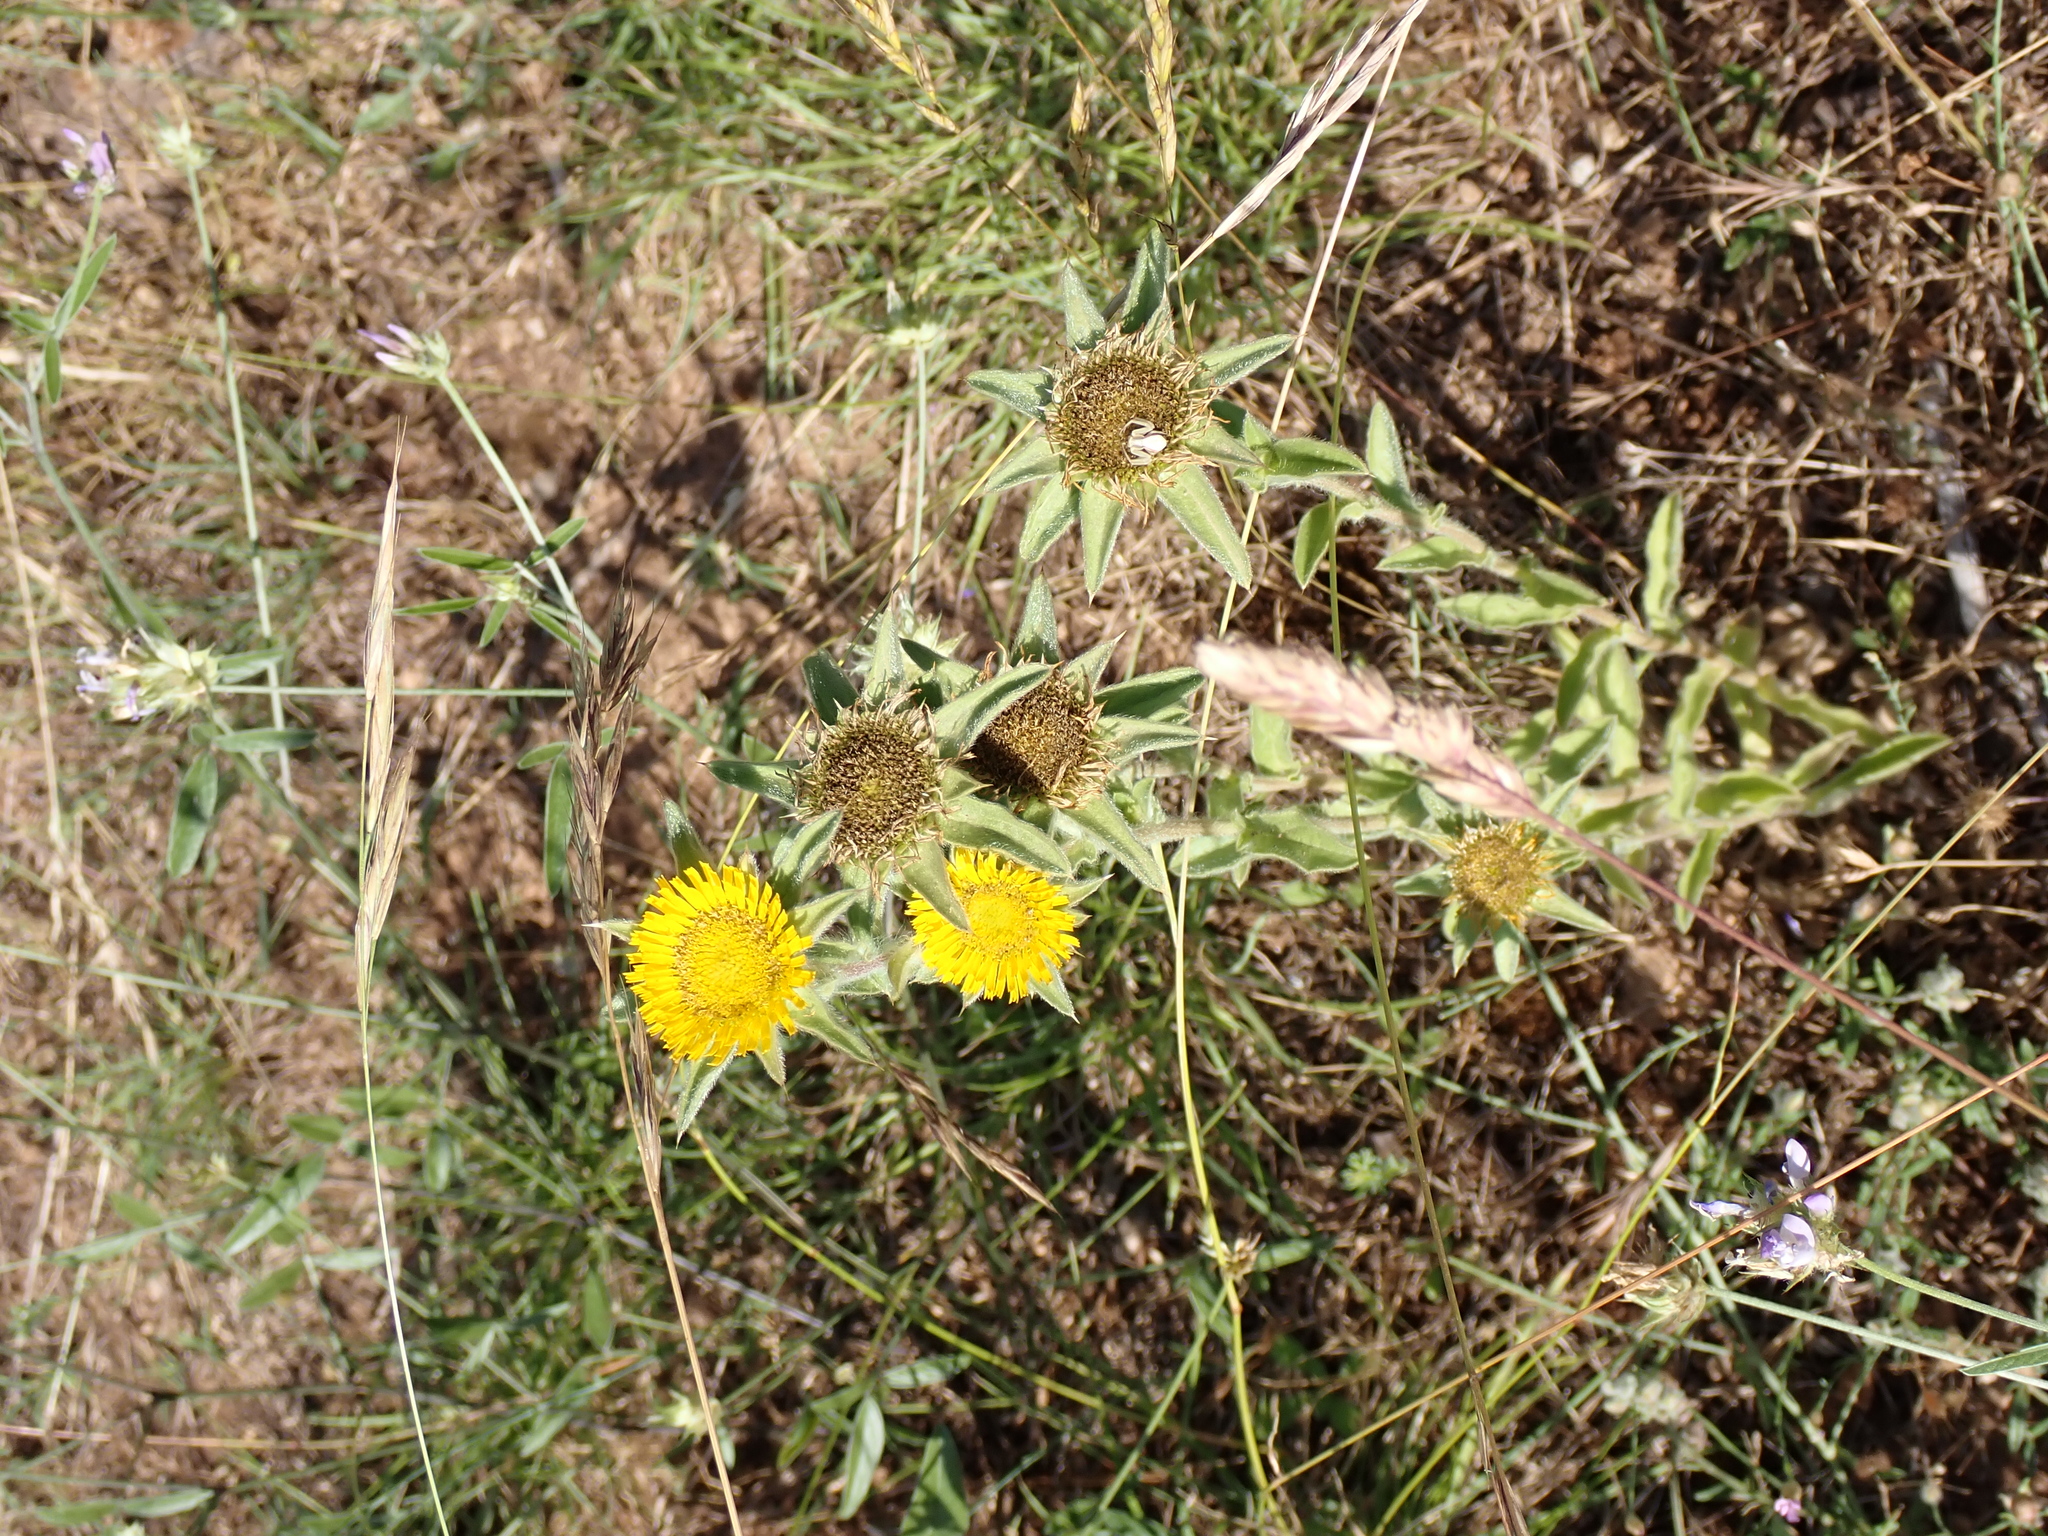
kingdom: Plantae
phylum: Tracheophyta
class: Magnoliopsida
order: Asterales
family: Asteraceae
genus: Pallenis
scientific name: Pallenis spinosa
